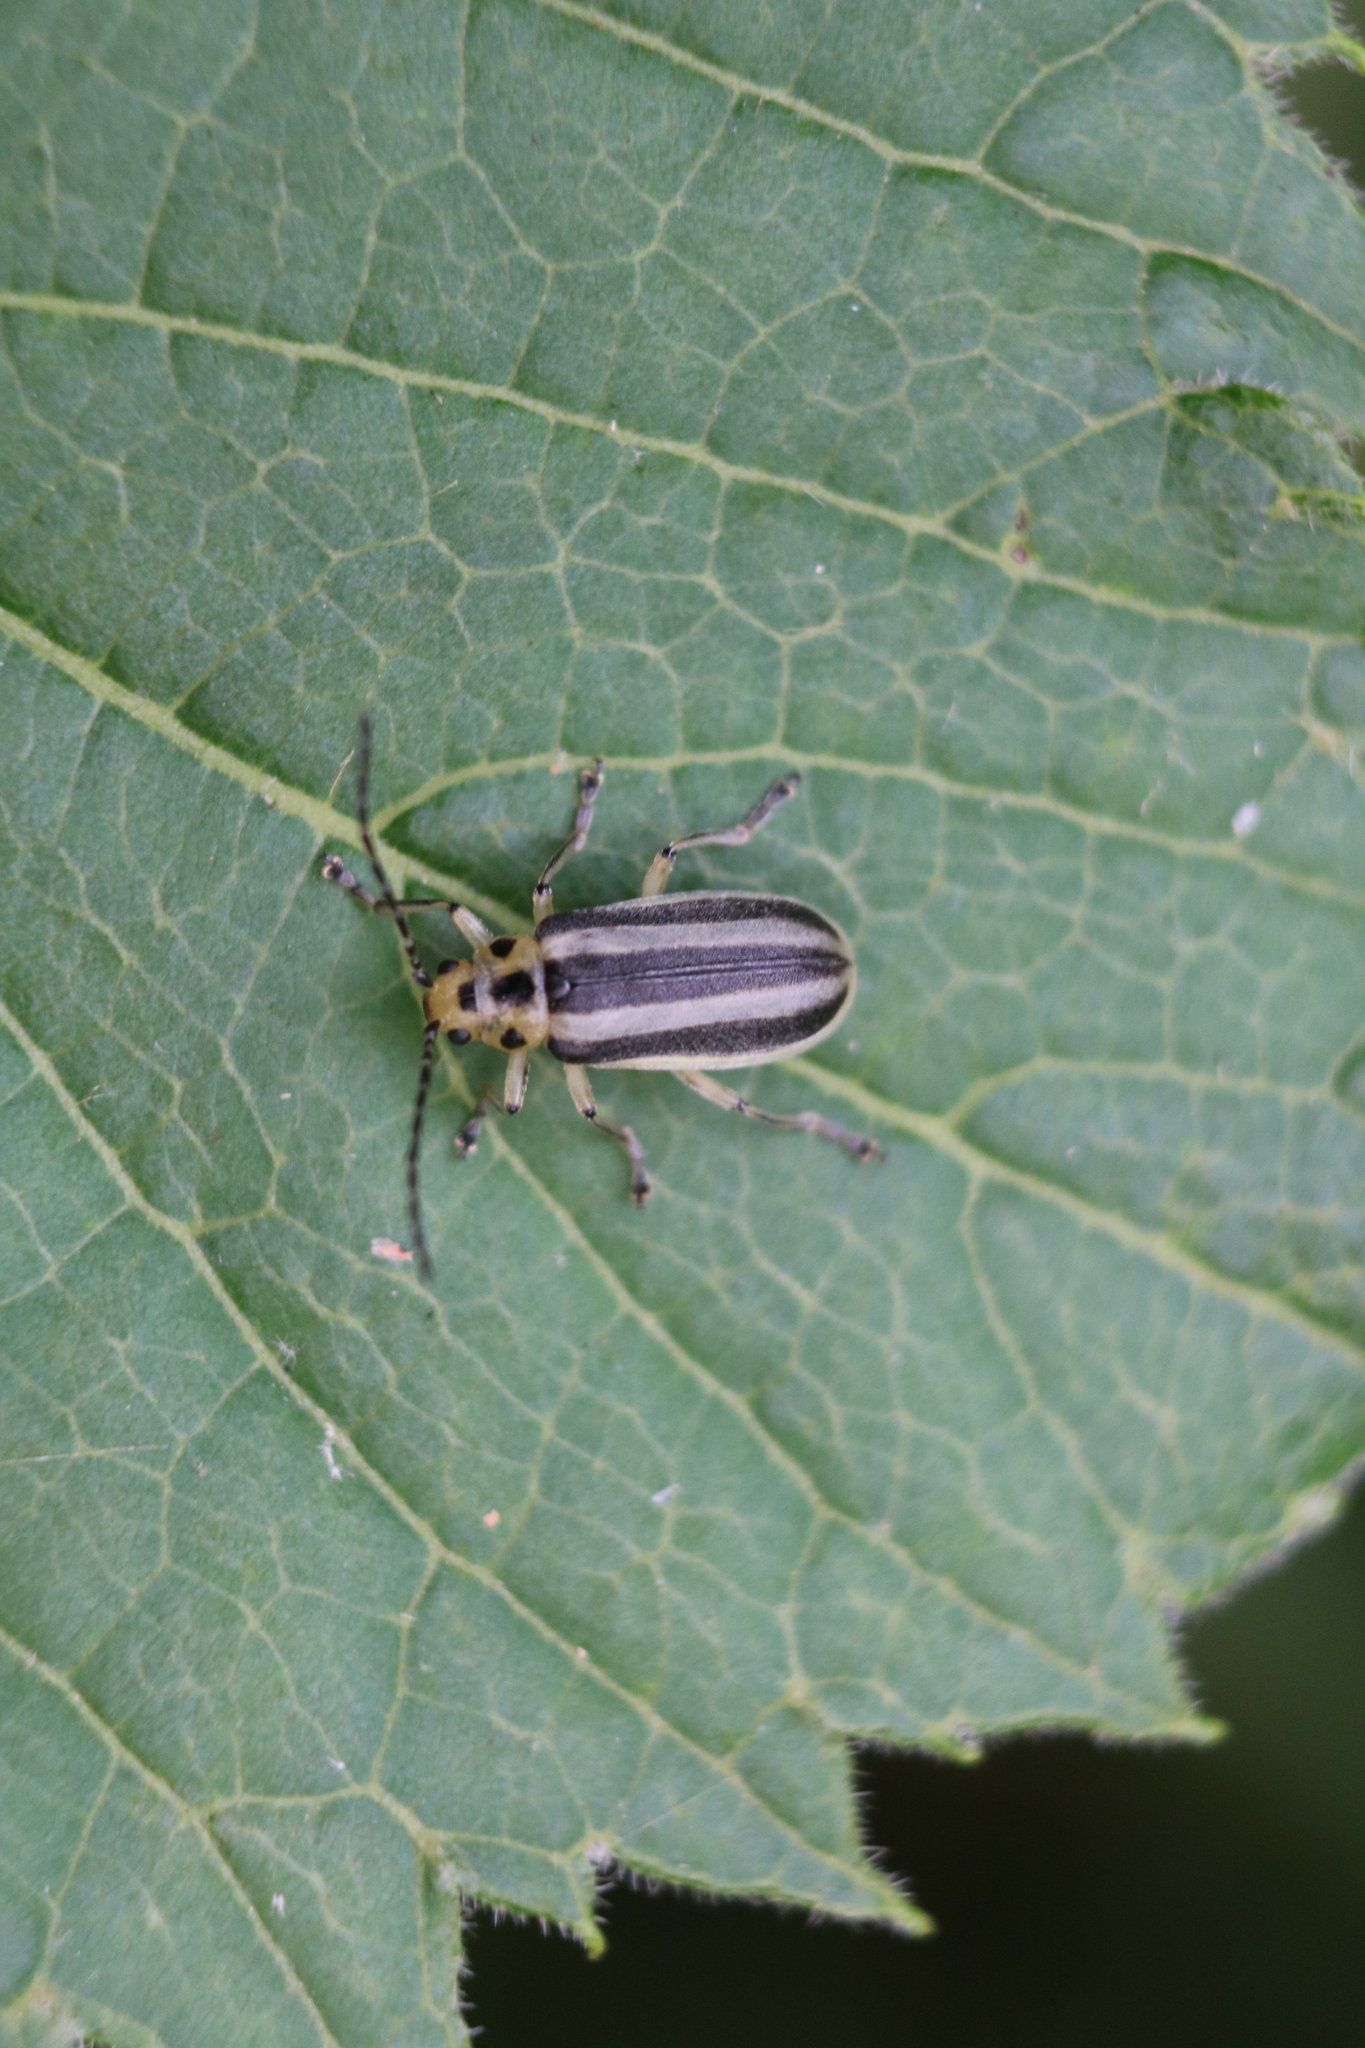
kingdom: Animalia
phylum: Arthropoda
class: Insecta
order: Coleoptera
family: Chrysomelidae
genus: Trirhabda
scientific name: Trirhabda canadensis
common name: Goldenrod leaf beetle
